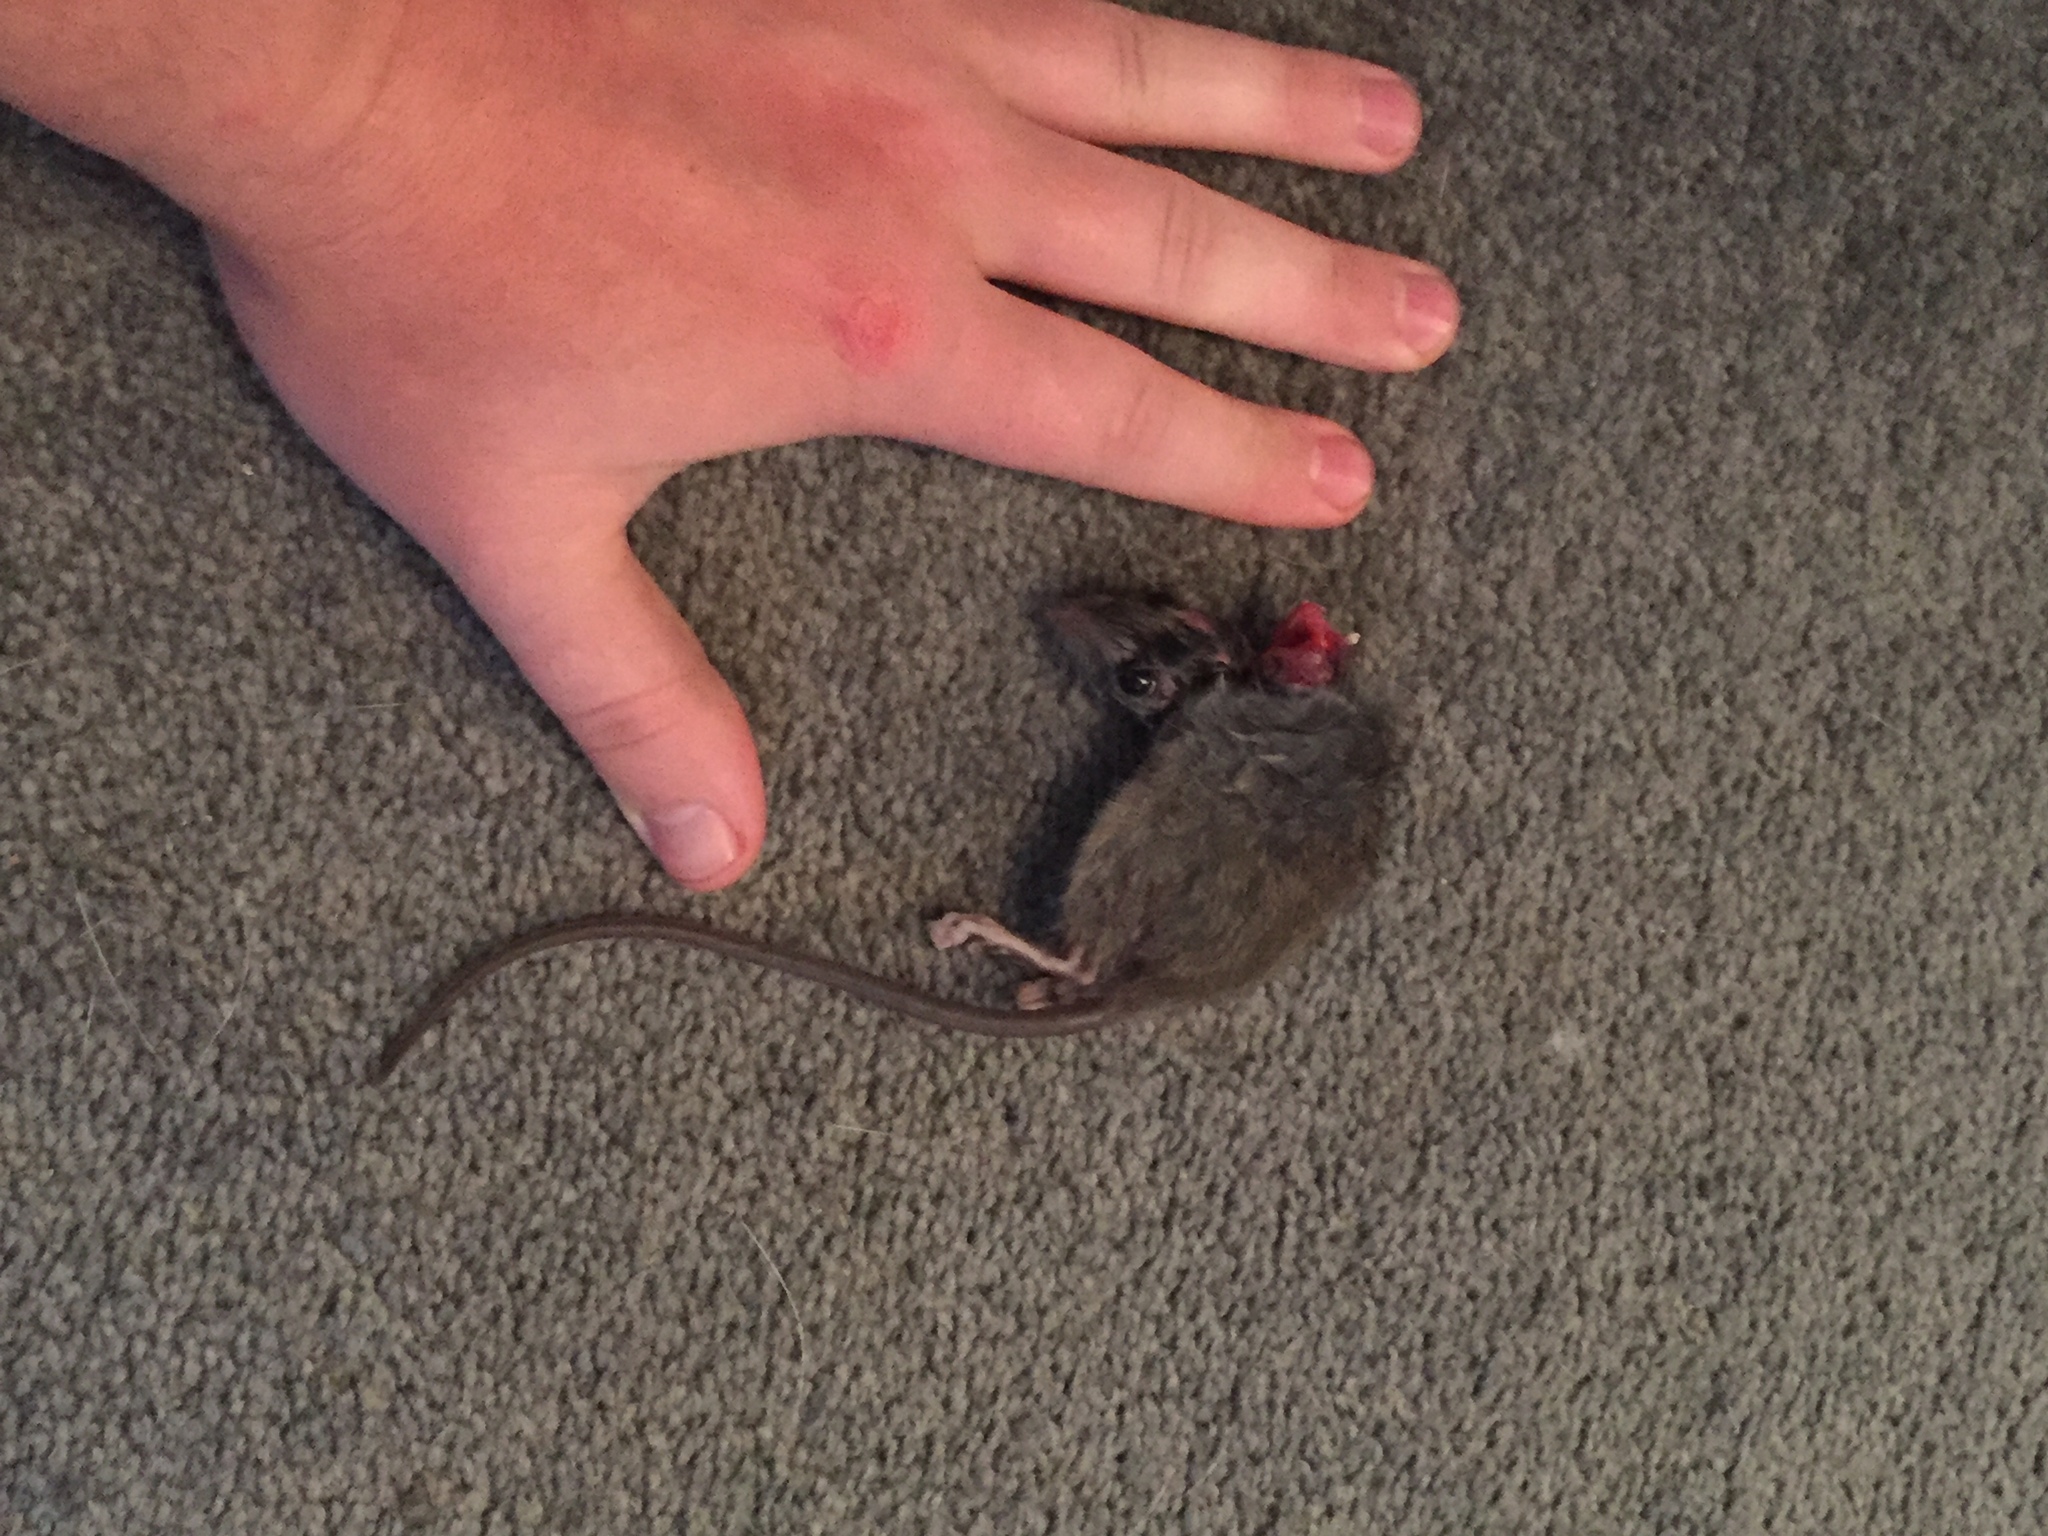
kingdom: Animalia
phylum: Chordata
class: Mammalia
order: Rodentia
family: Muridae
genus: Rattus
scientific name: Rattus rattus
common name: Black rat
